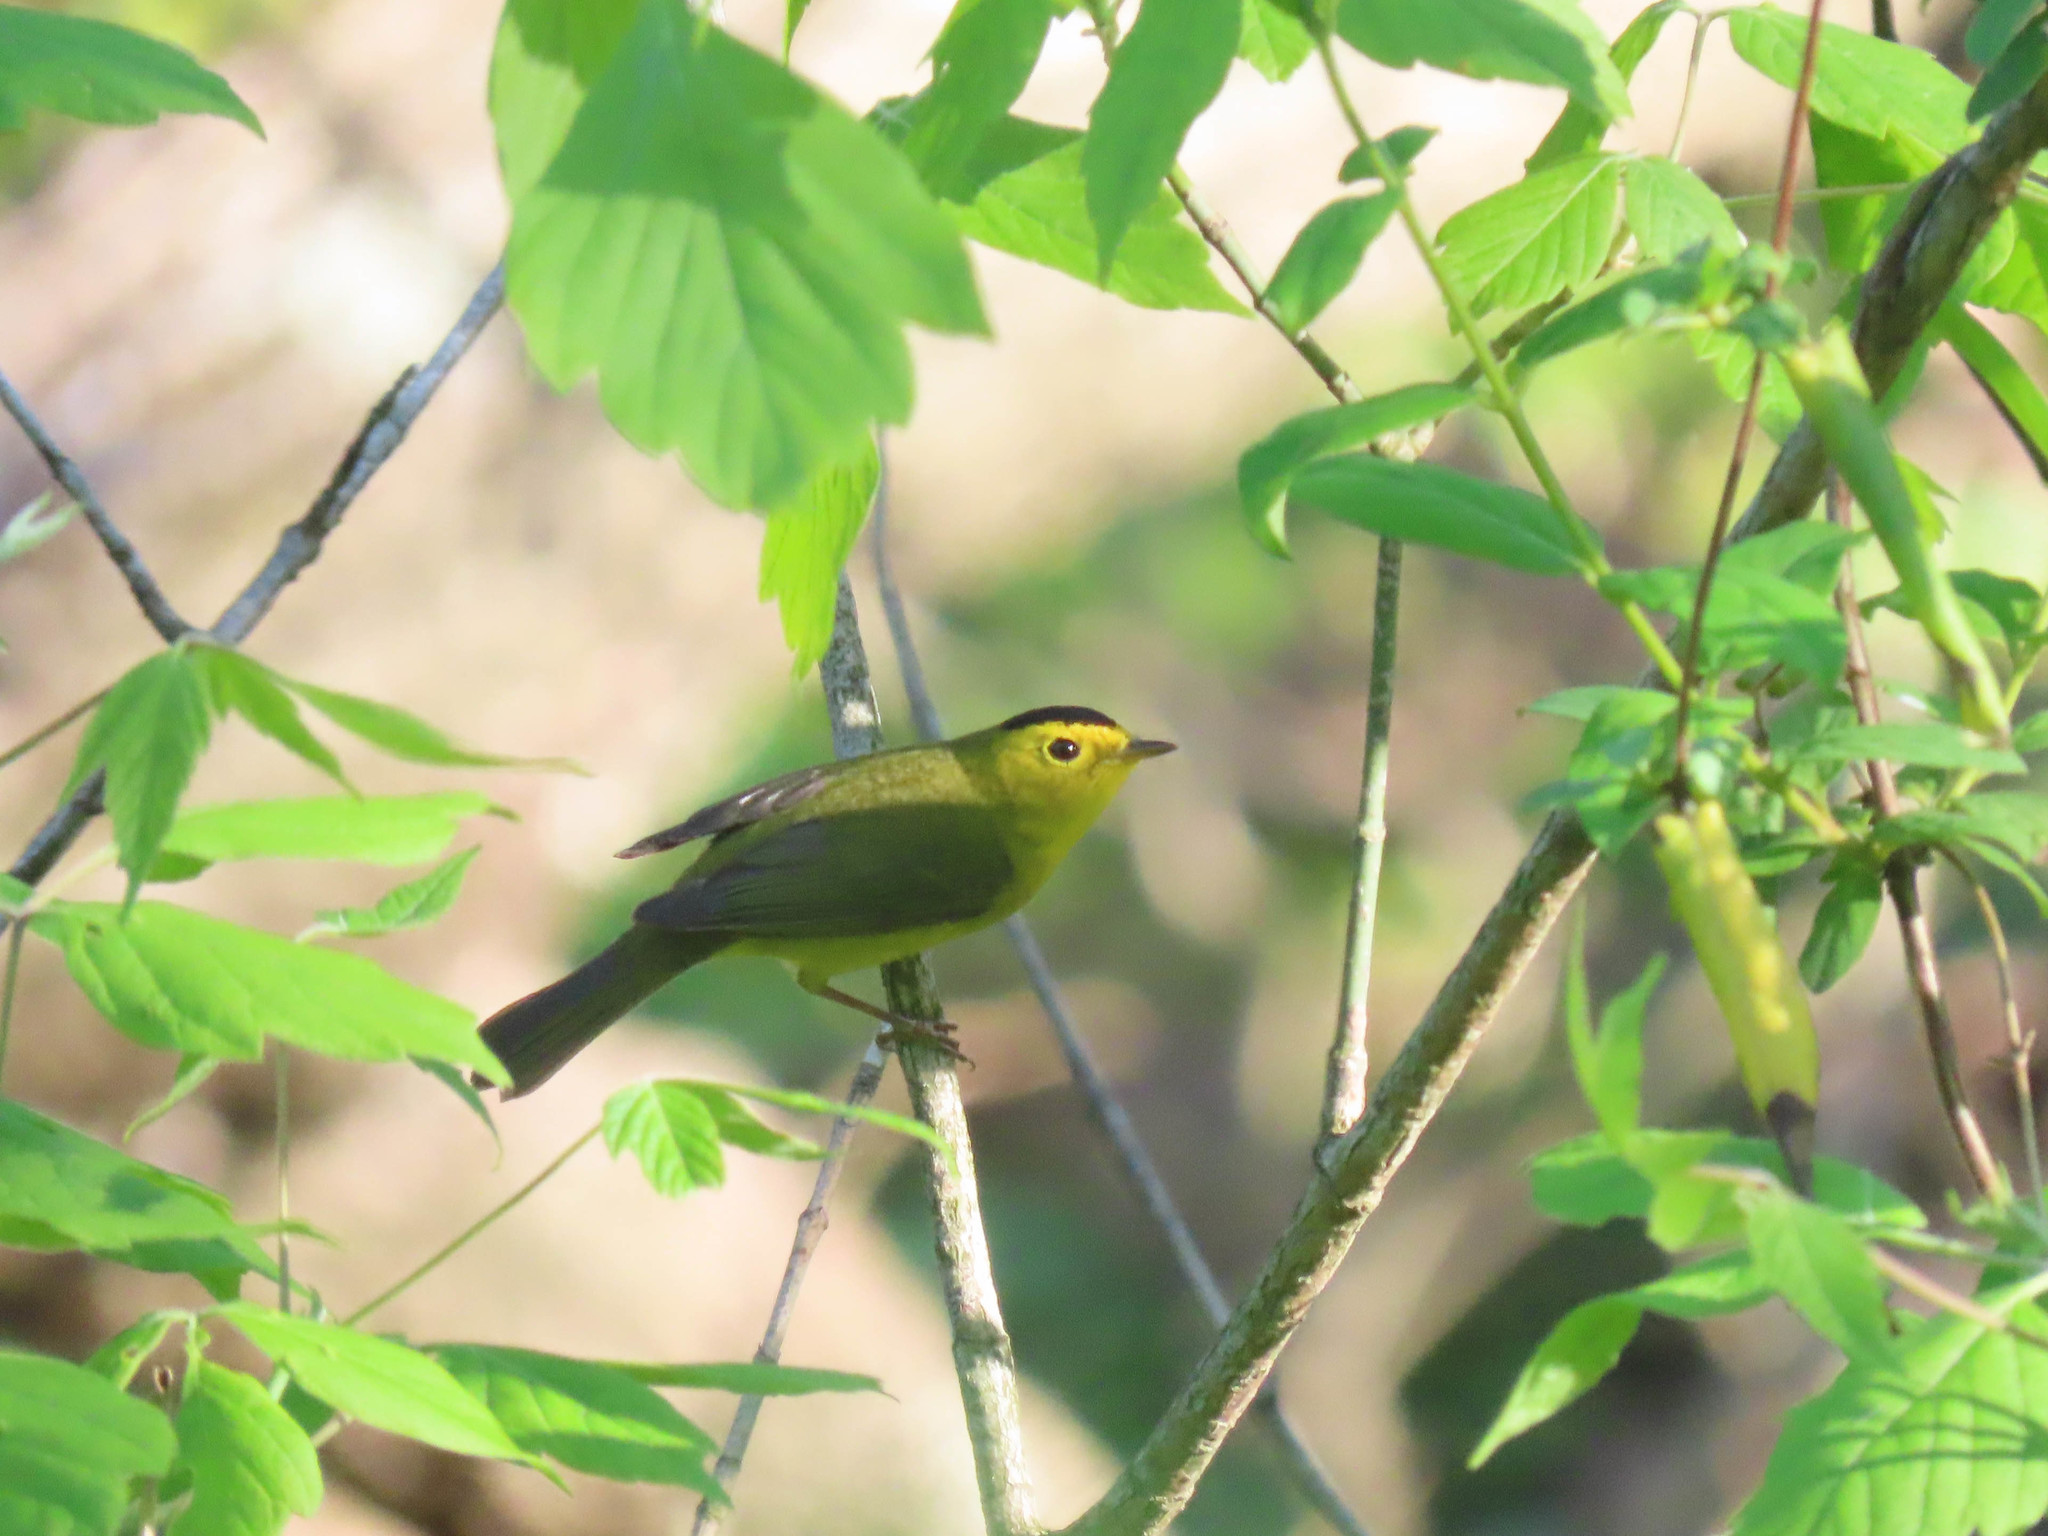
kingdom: Animalia
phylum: Chordata
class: Aves
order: Passeriformes
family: Parulidae
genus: Cardellina
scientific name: Cardellina pusilla
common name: Wilson's warbler
